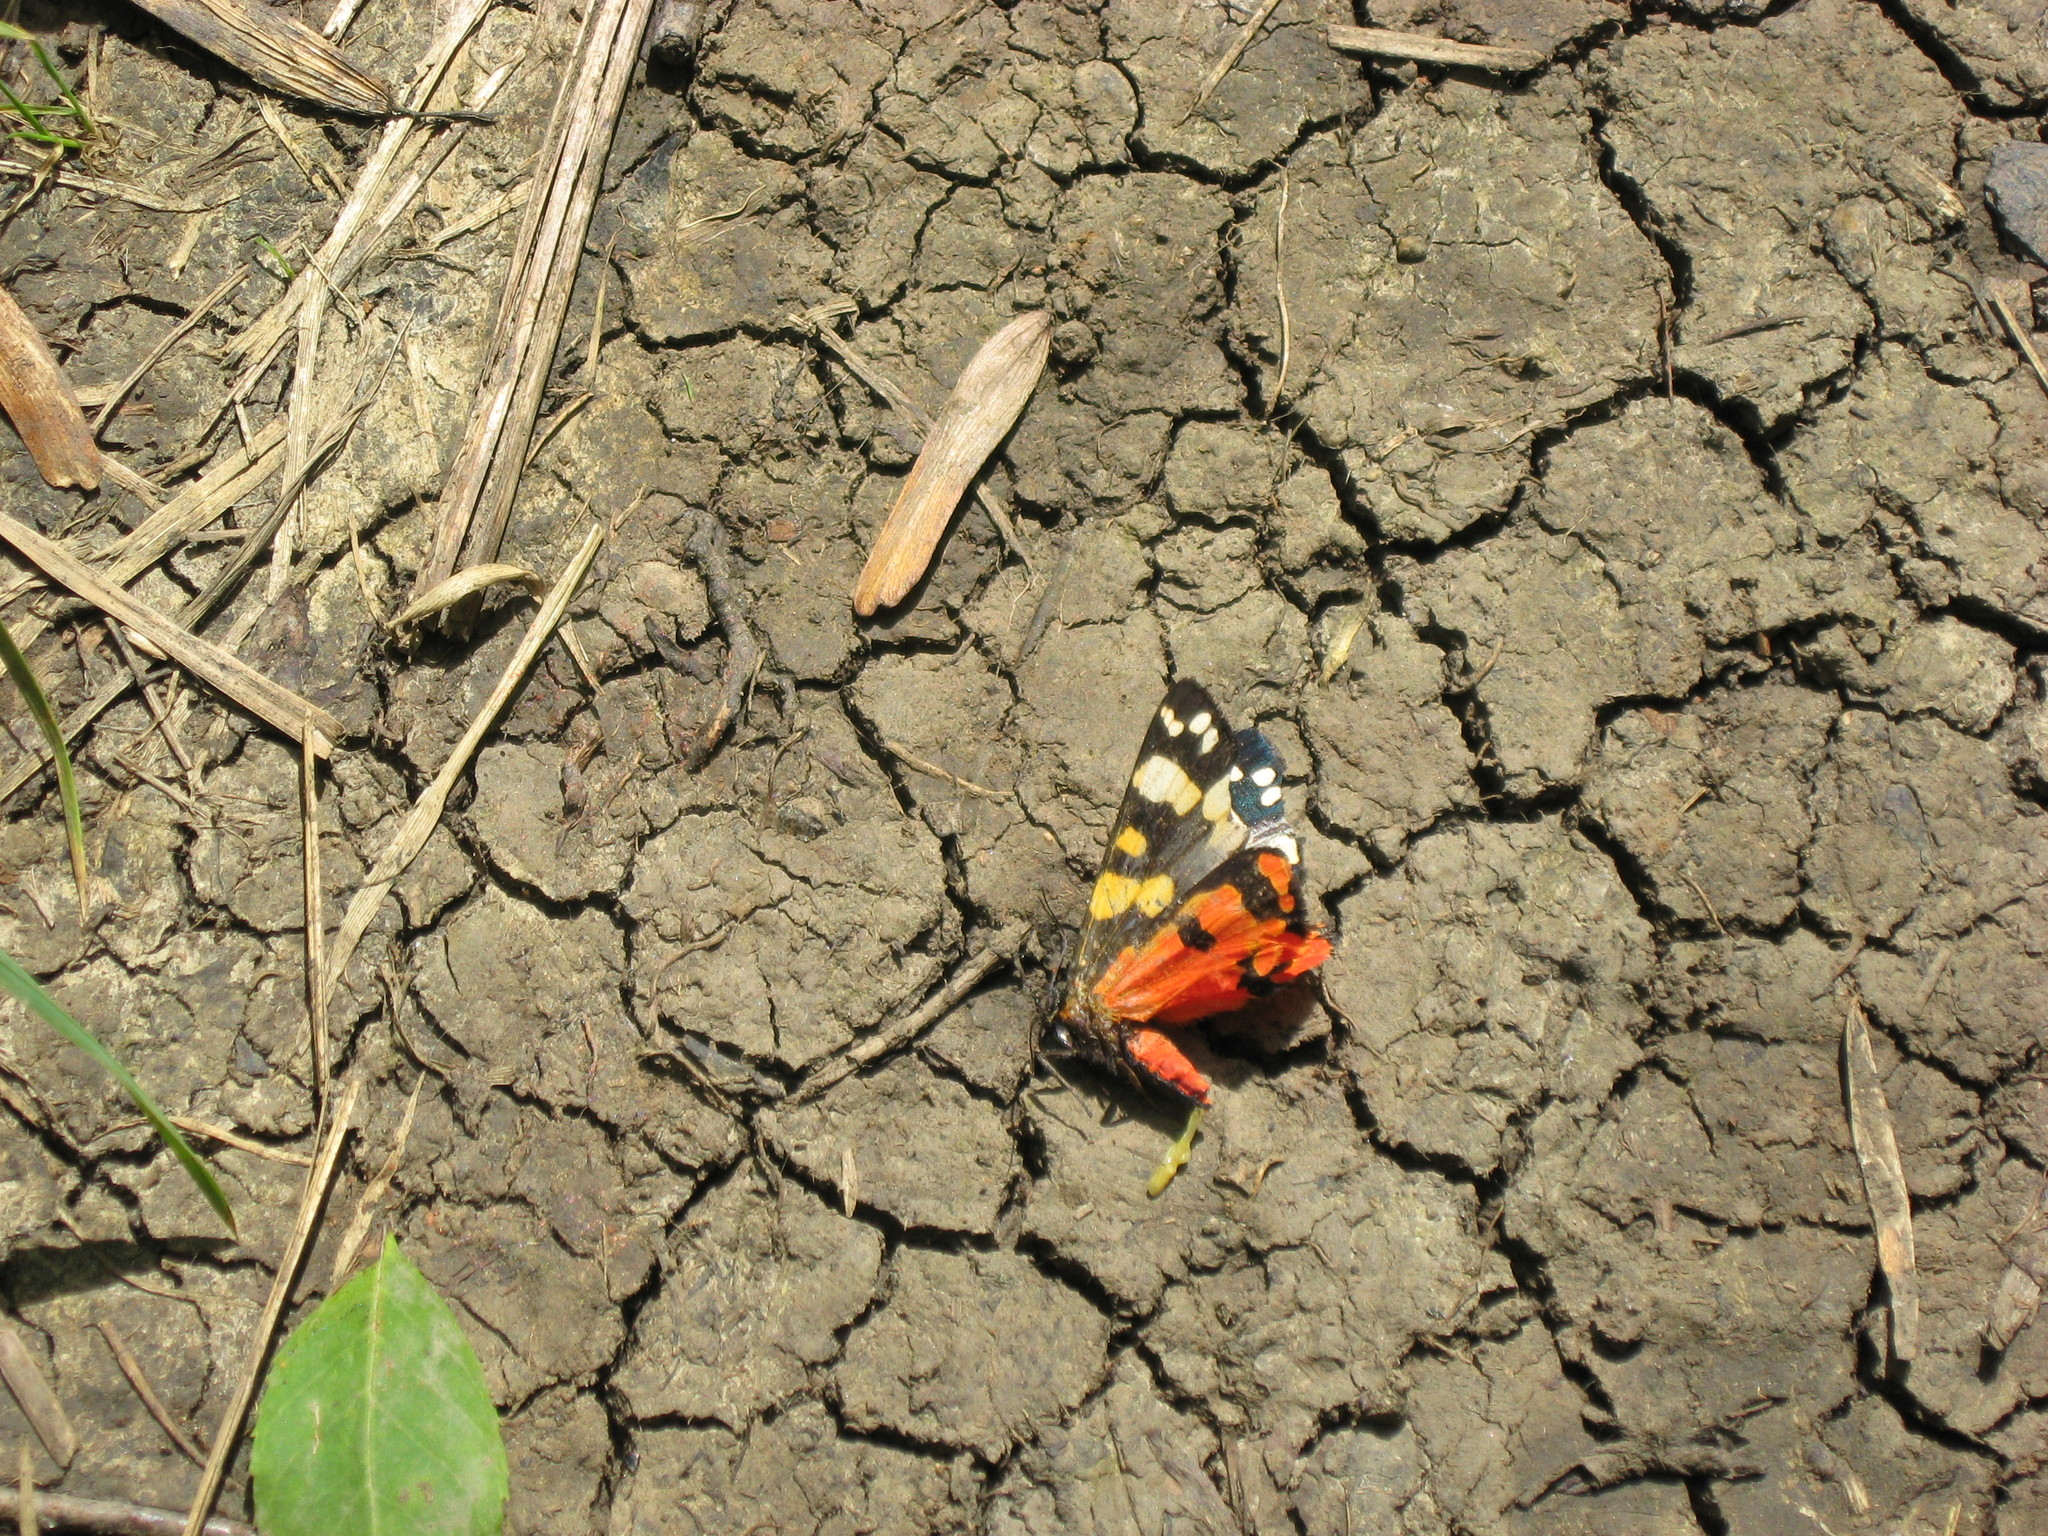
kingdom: Animalia
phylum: Arthropoda
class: Insecta
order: Lepidoptera
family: Erebidae
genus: Callimorpha
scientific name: Callimorpha dominula
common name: Scarlet tiger
